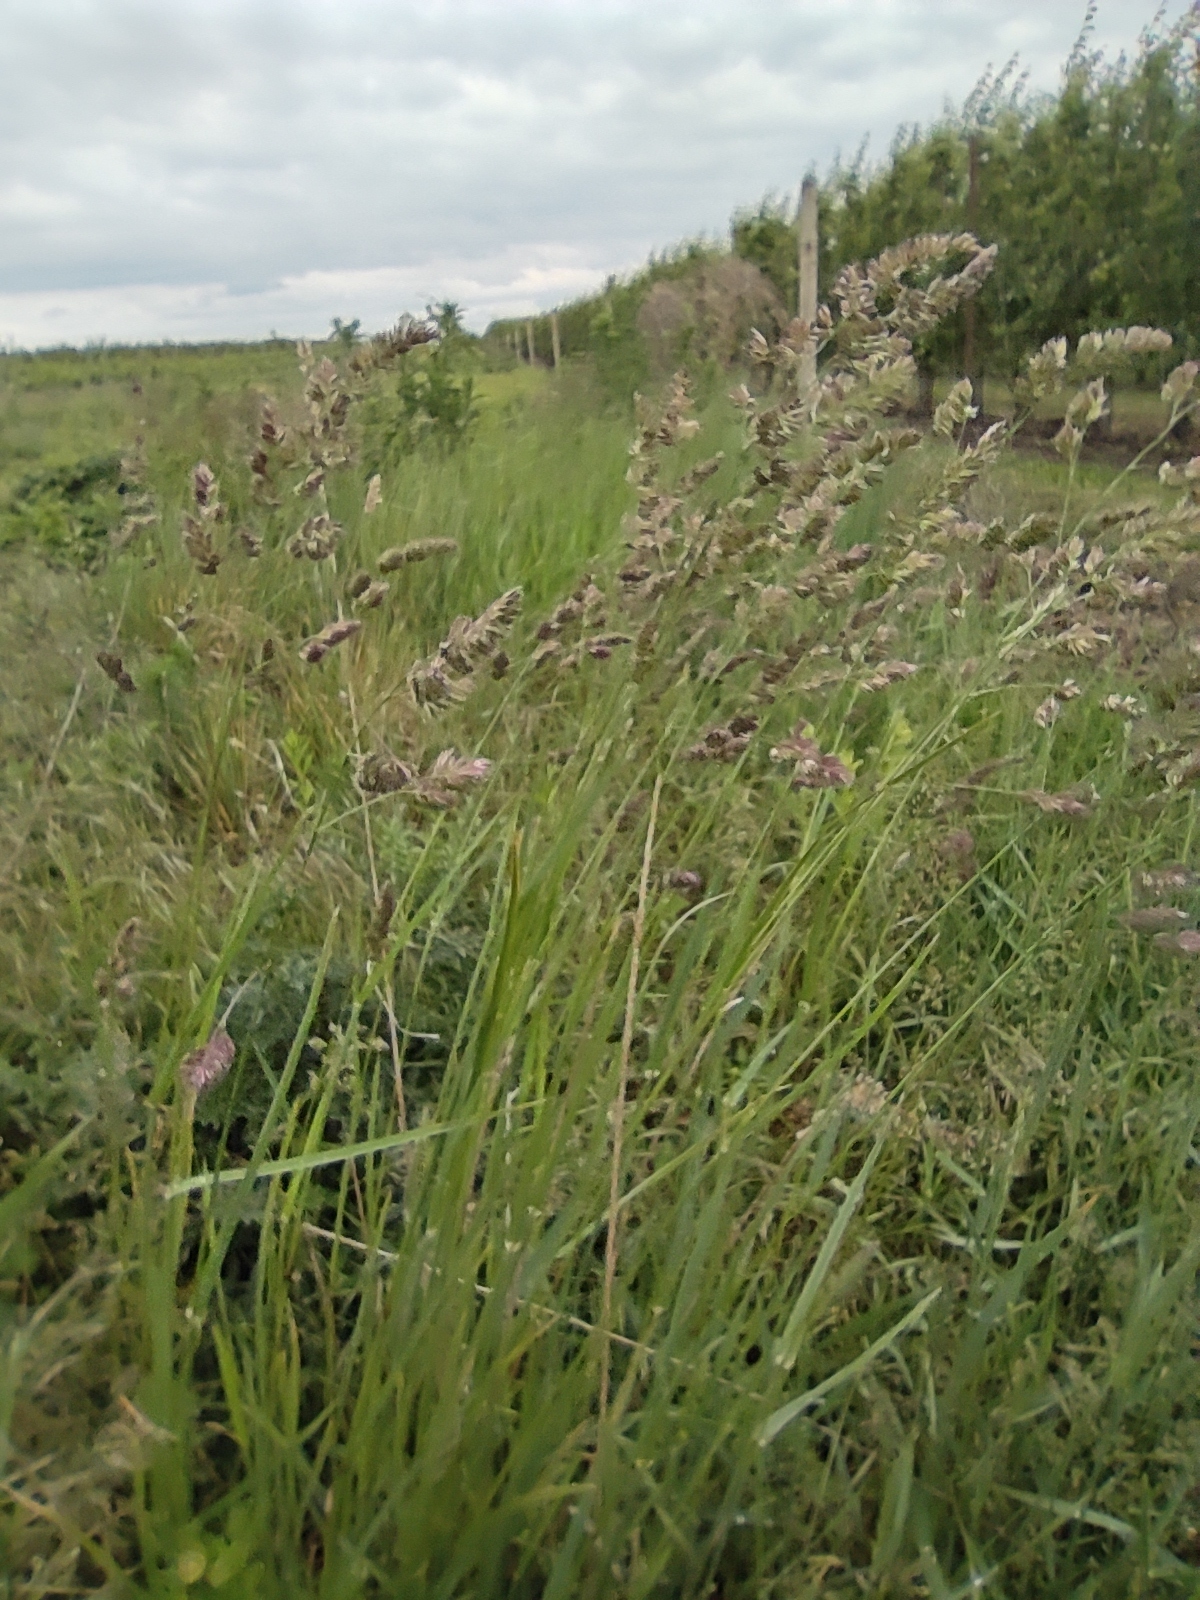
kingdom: Plantae
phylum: Tracheophyta
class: Liliopsida
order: Poales
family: Poaceae
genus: Dactylis
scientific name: Dactylis glomerata
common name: Orchardgrass
